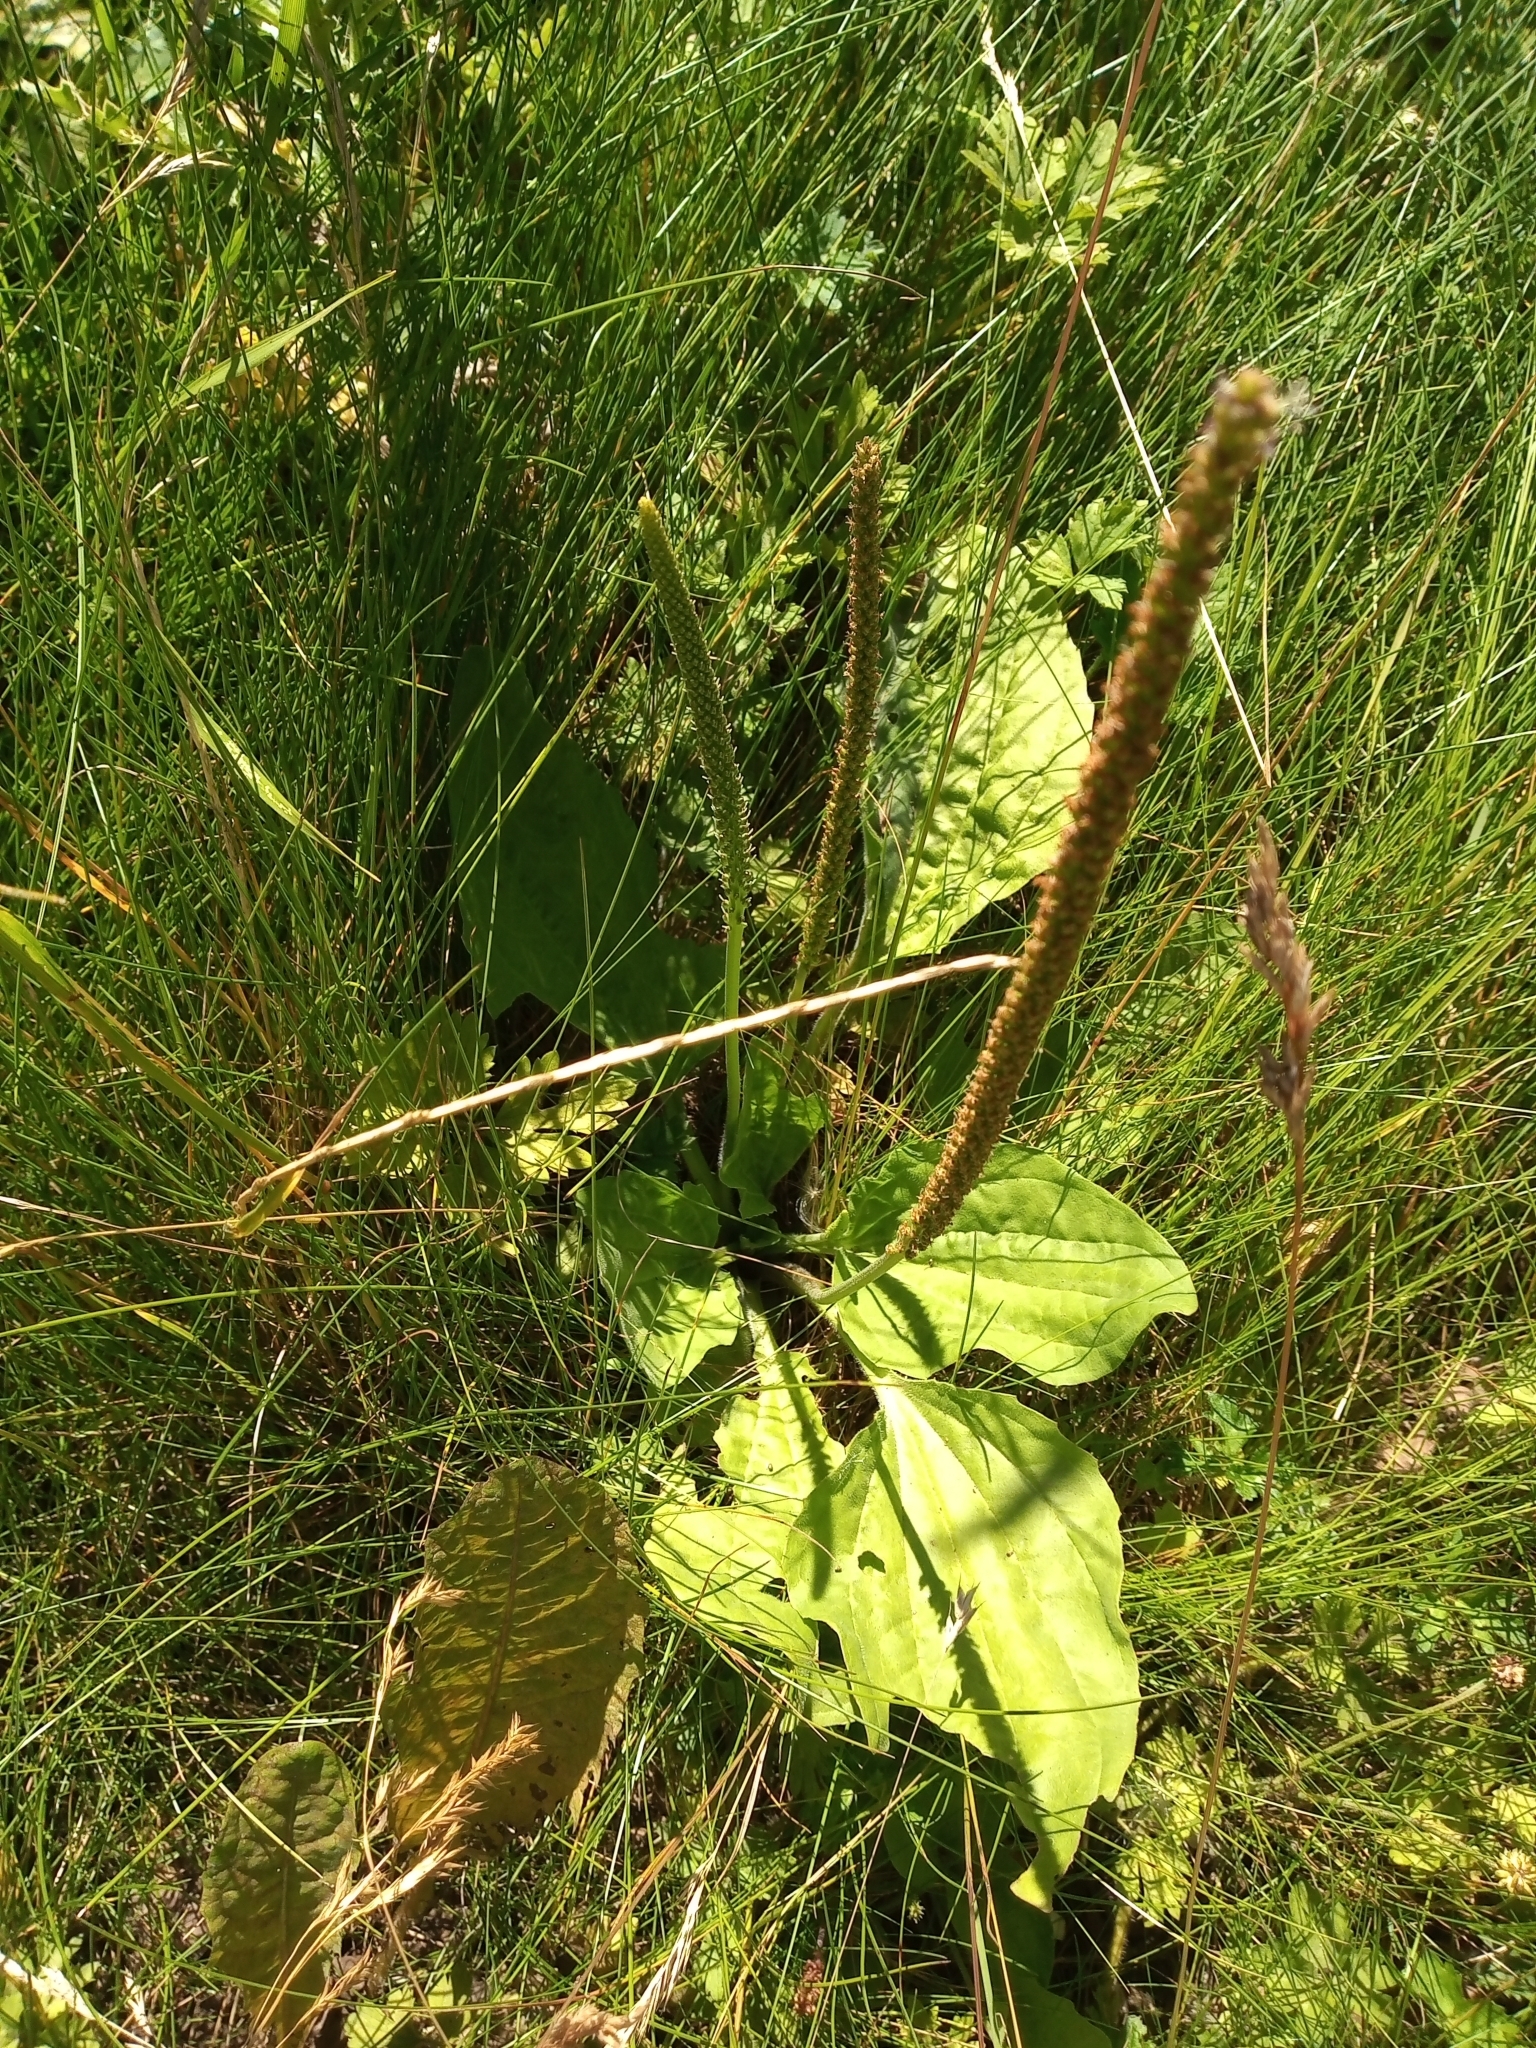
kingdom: Plantae
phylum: Tracheophyta
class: Magnoliopsida
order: Lamiales
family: Plantaginaceae
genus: Plantago
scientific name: Plantago major
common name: Common plantain
